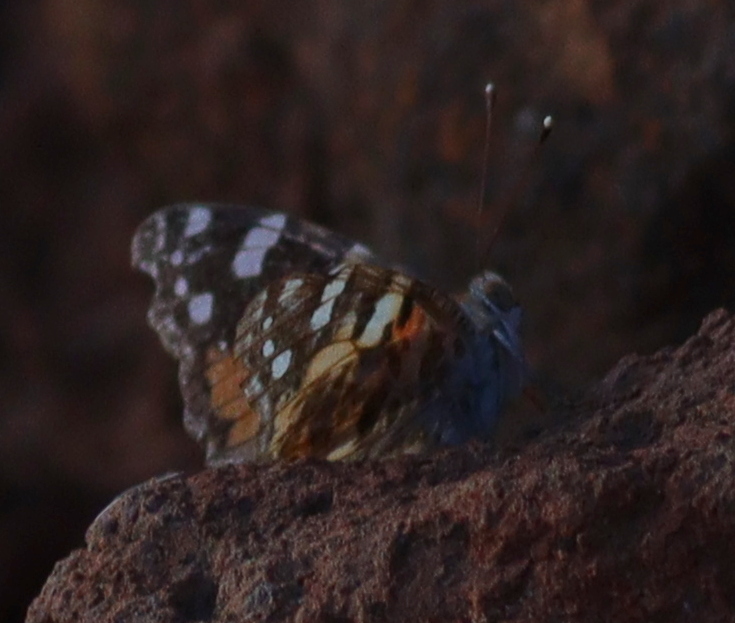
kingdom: Animalia
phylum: Arthropoda
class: Insecta
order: Lepidoptera
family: Nymphalidae
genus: Vanessa
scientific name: Vanessa cardui
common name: Painted lady
